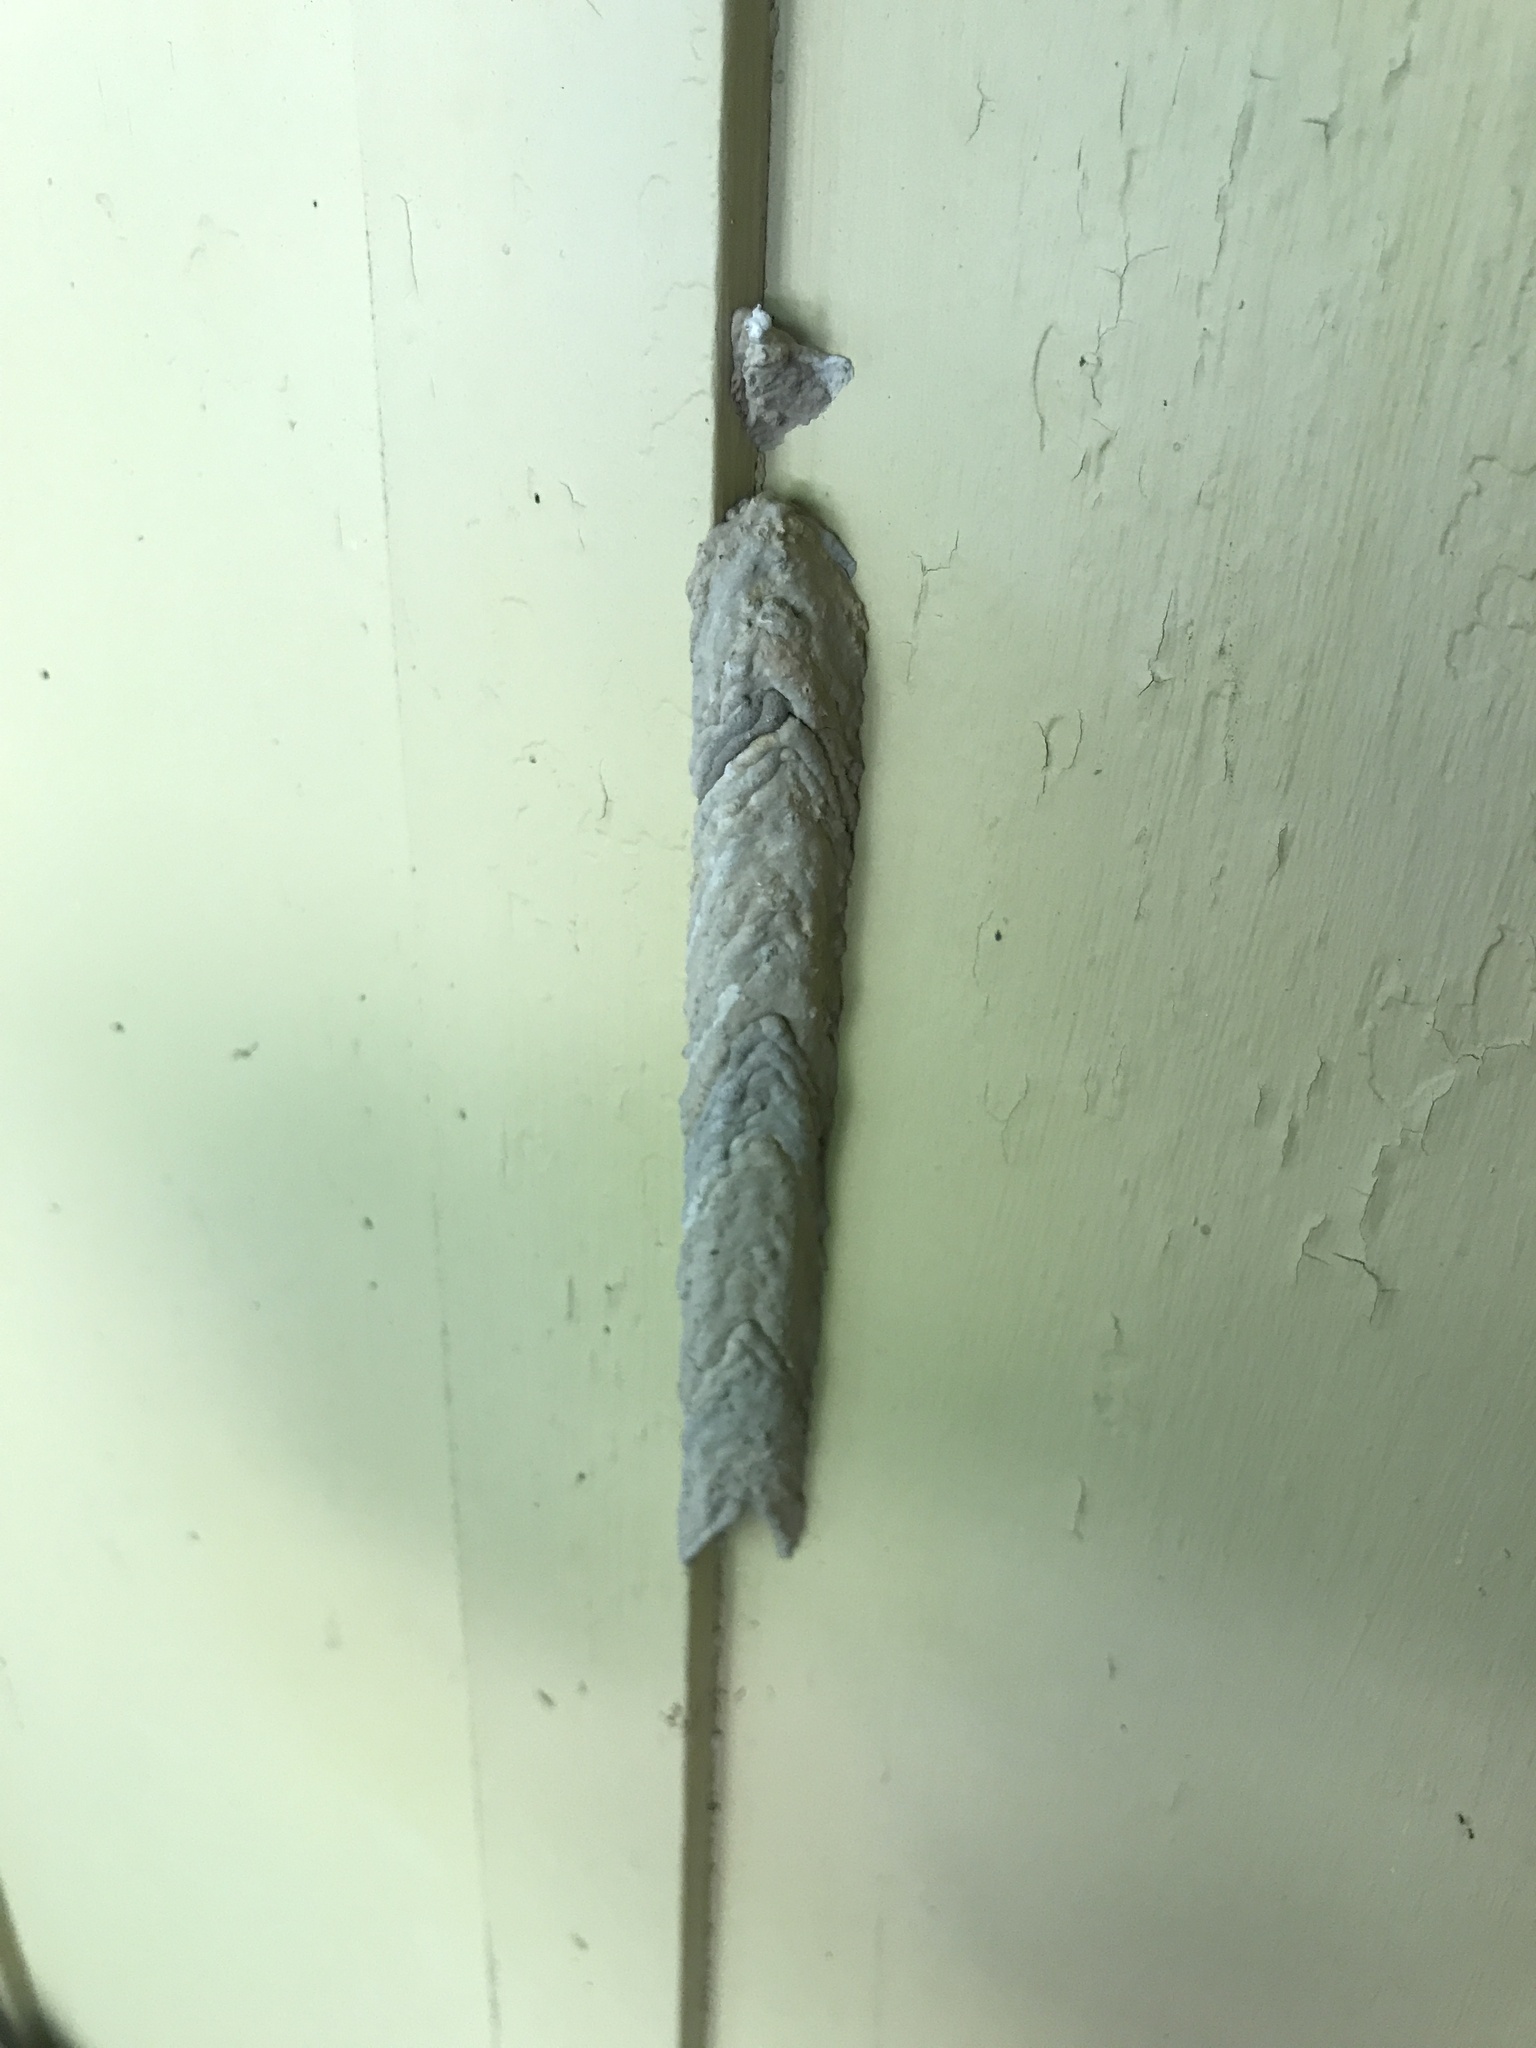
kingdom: Animalia
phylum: Arthropoda
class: Insecta
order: Hymenoptera
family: Crabronidae
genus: Trypoxylon
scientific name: Trypoxylon politum
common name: Organ-pipe mud-dauber wasp
